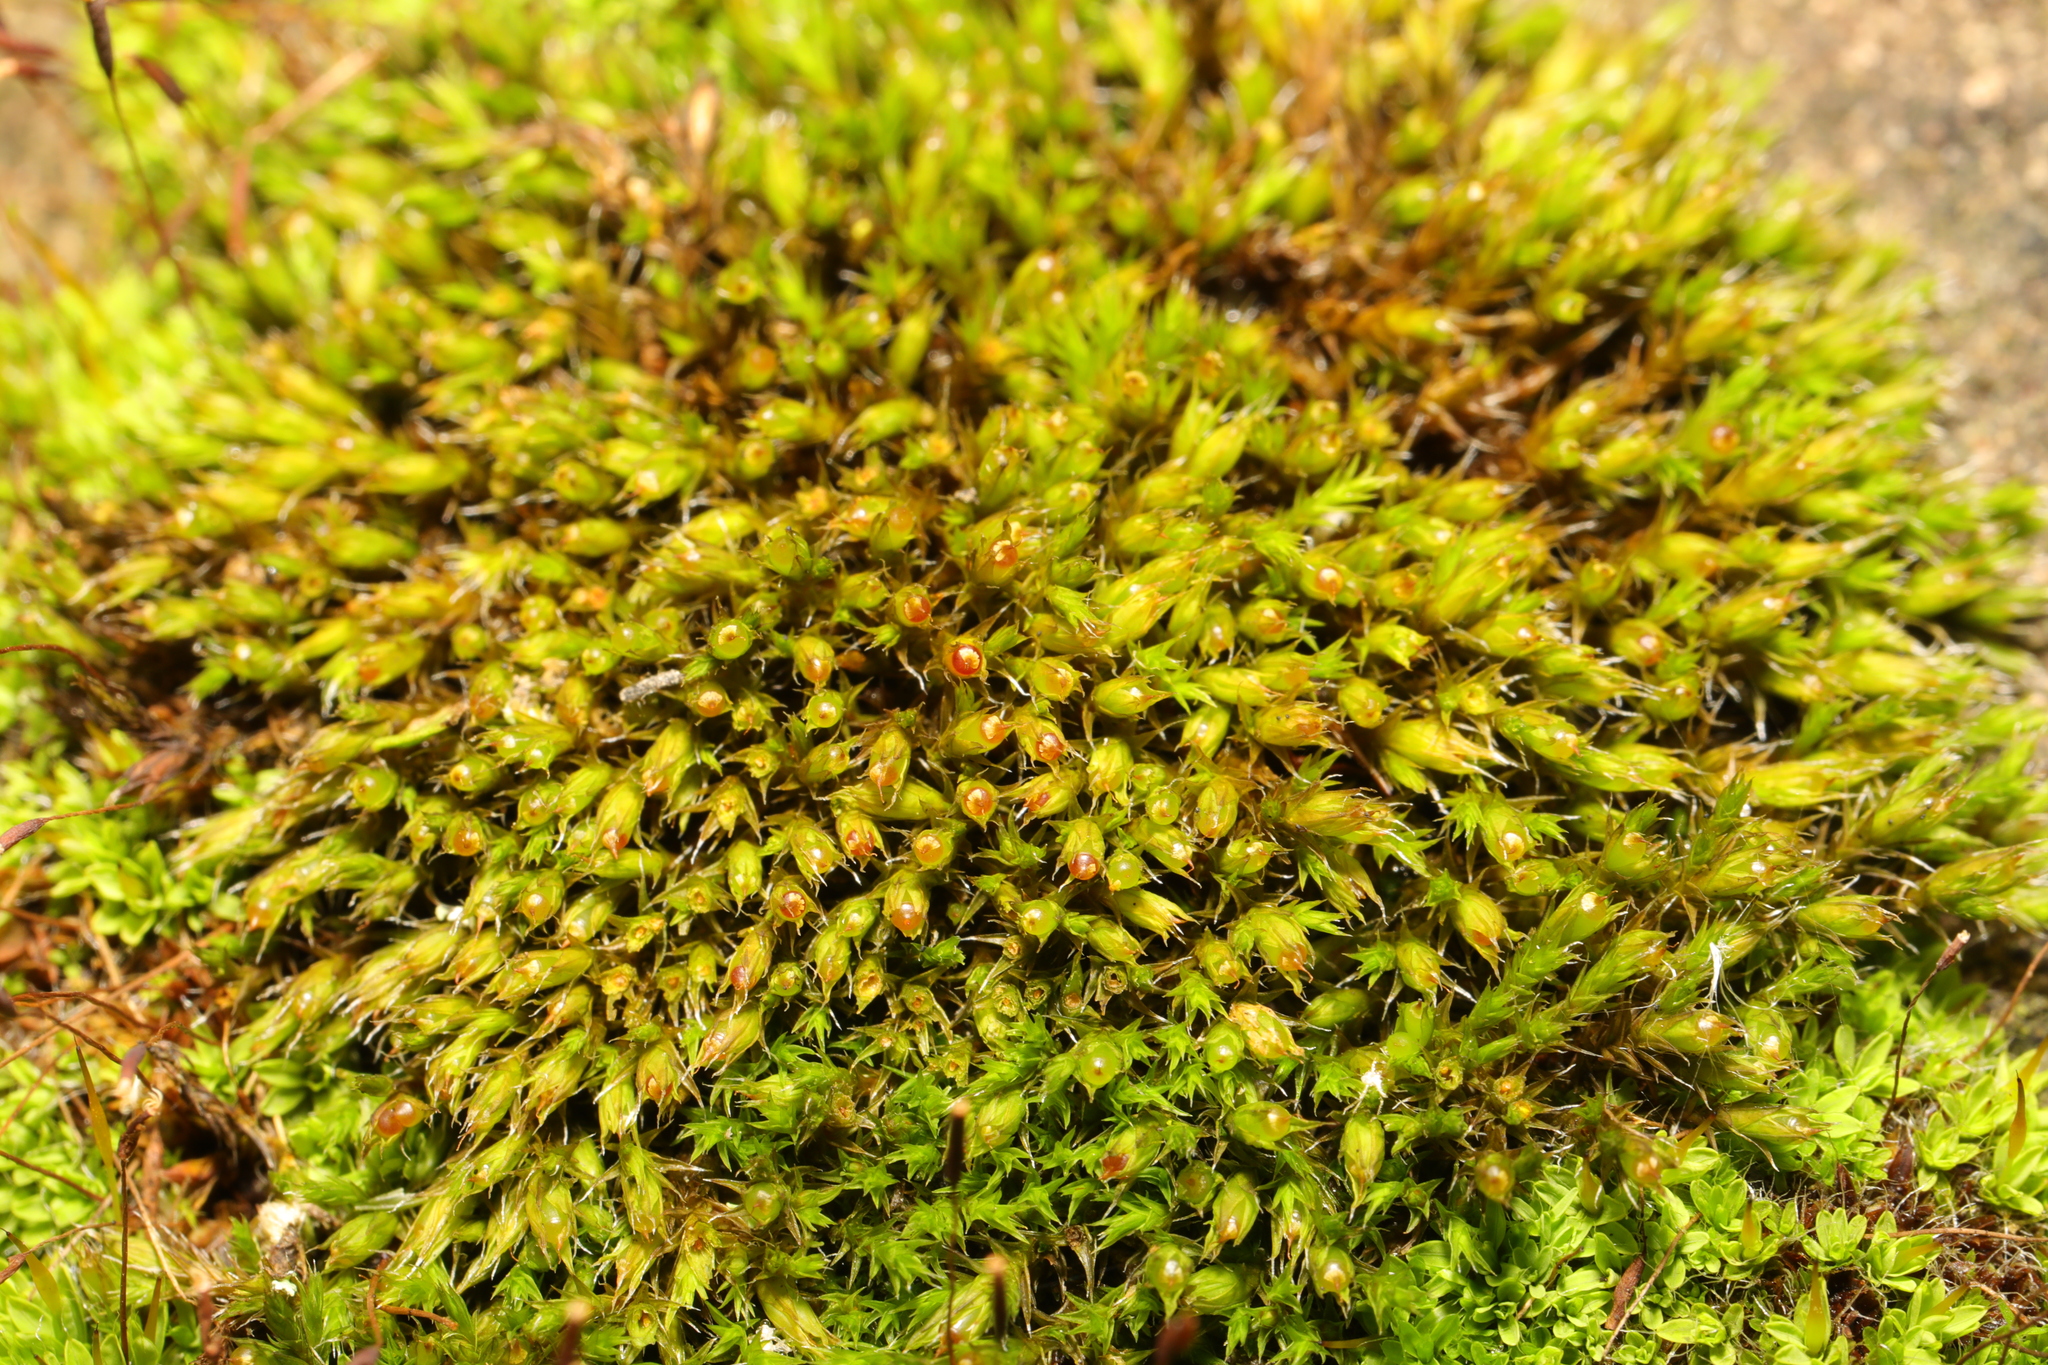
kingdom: Plantae
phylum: Bryophyta
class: Bryopsida
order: Grimmiales
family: Grimmiaceae
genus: Schistidium
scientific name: Schistidium crassipilum
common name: Thickpoint bloom moss
